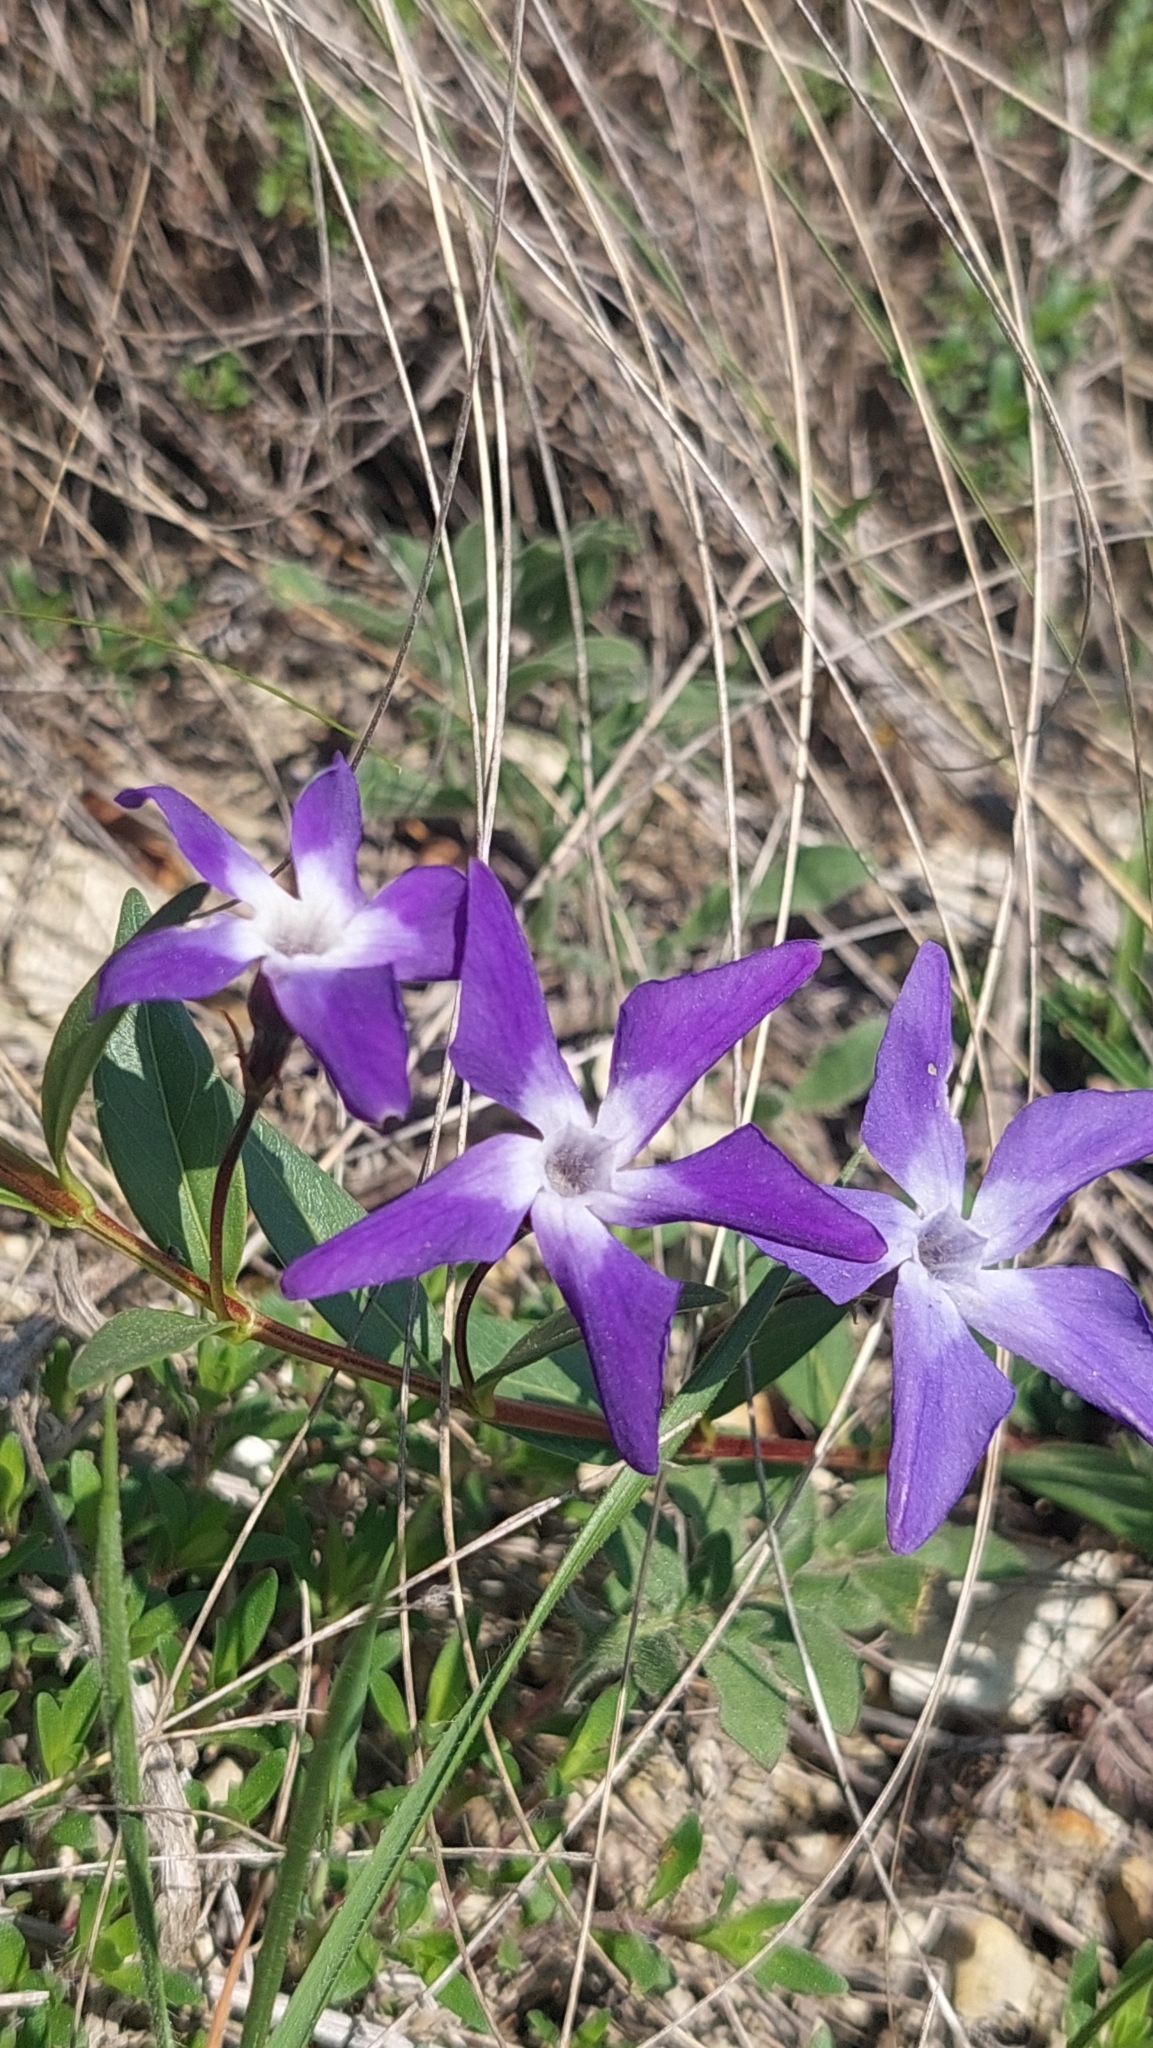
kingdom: Plantae
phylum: Tracheophyta
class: Magnoliopsida
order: Gentianales
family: Apocynaceae
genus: Vinca
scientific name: Vinca herbacea
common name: Herbaceous periwinkle
